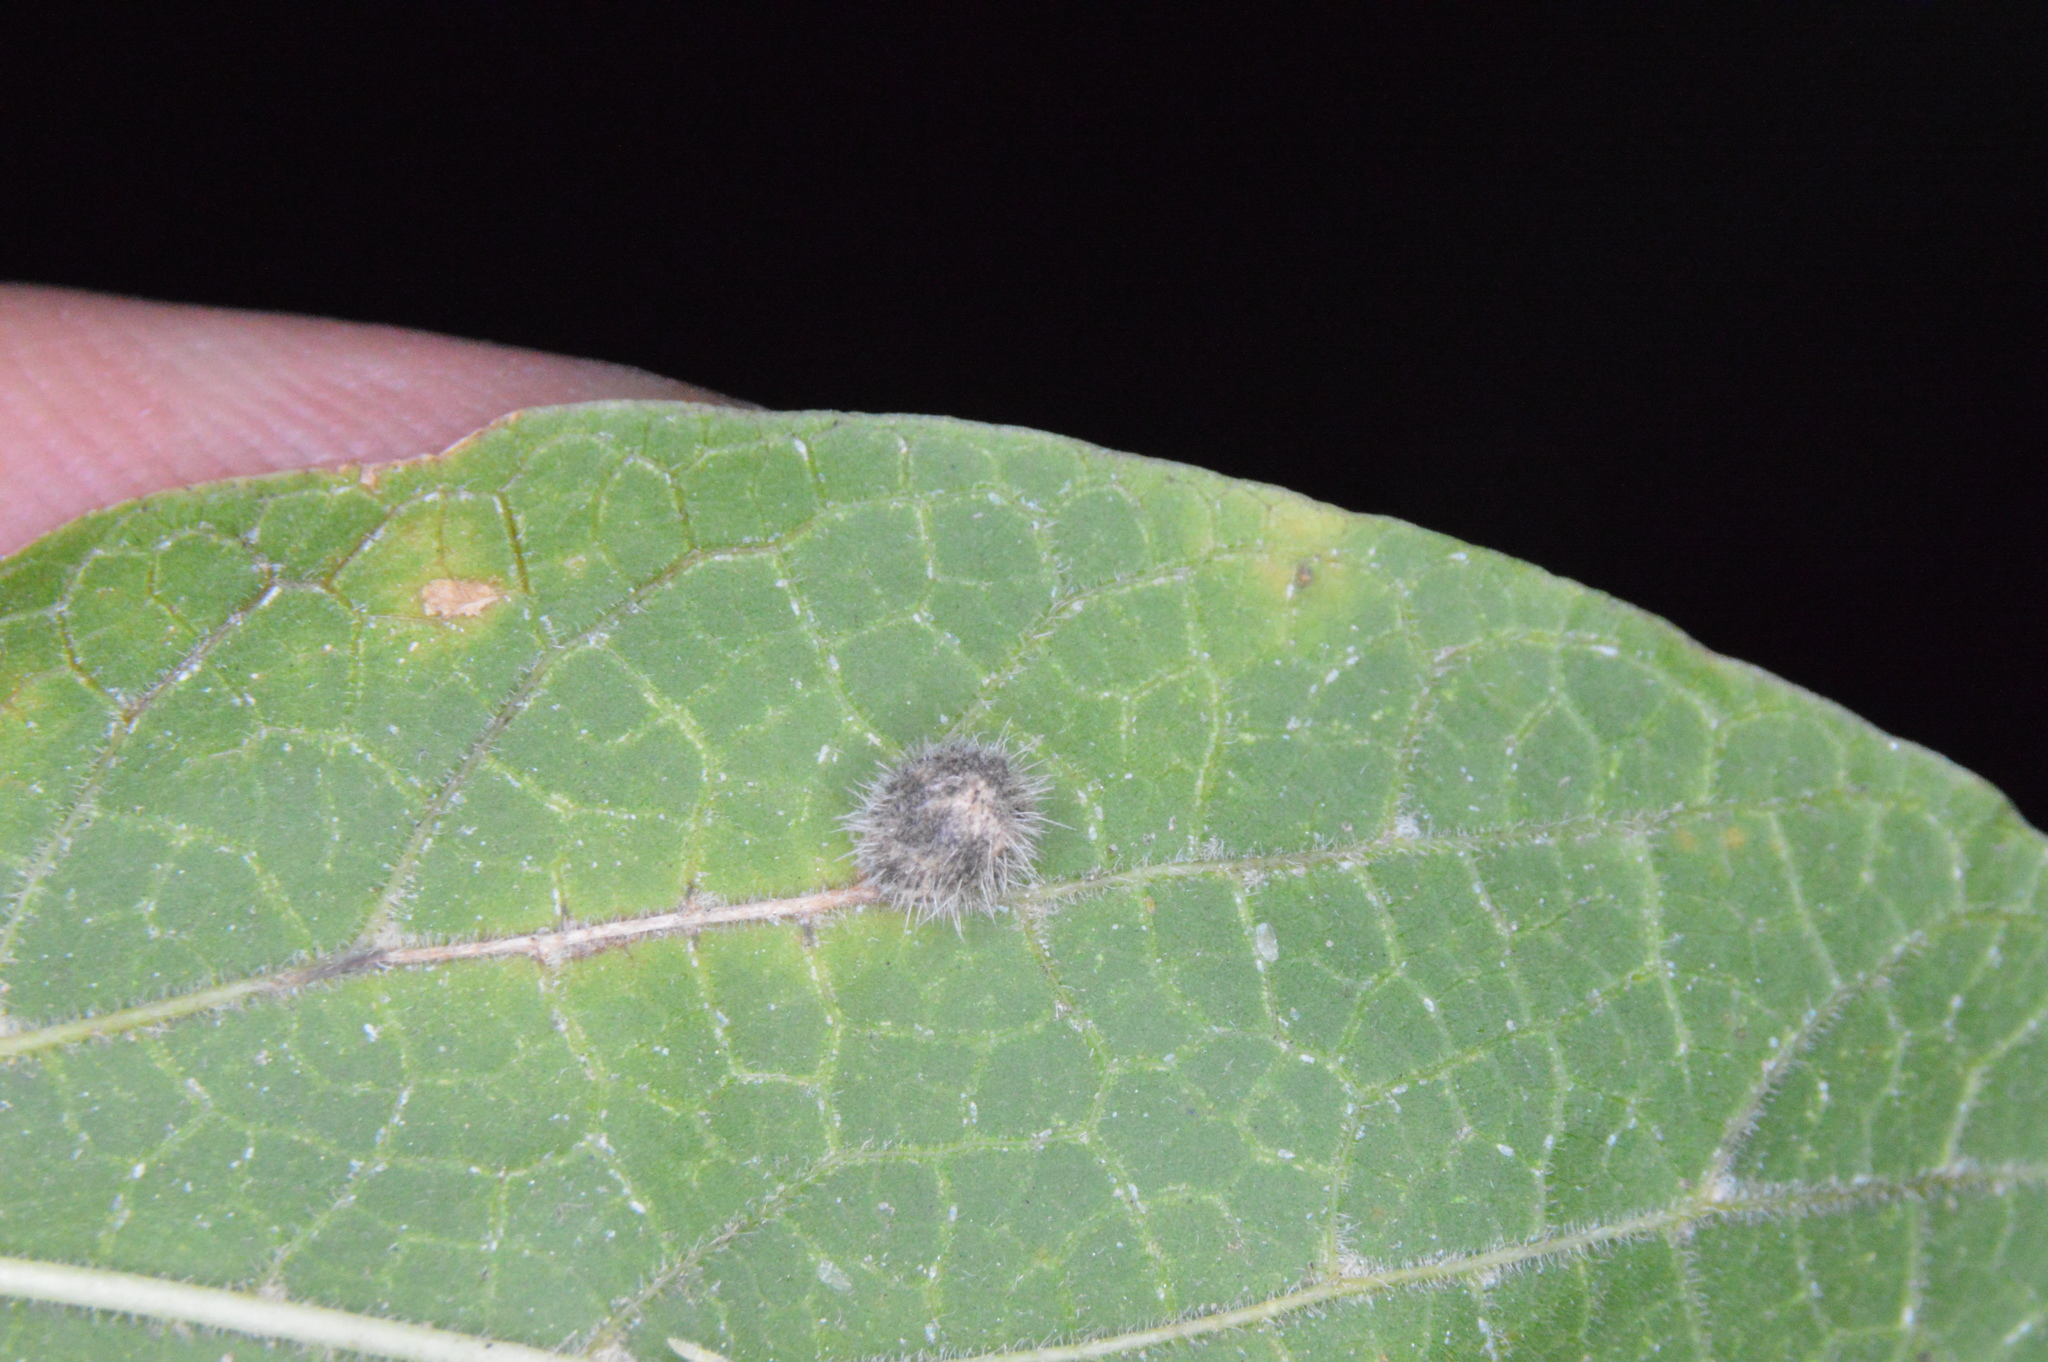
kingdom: Animalia
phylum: Arthropoda
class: Insecta
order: Diptera
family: Cecidomyiidae
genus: Celticecis
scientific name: Celticecis pubescens
